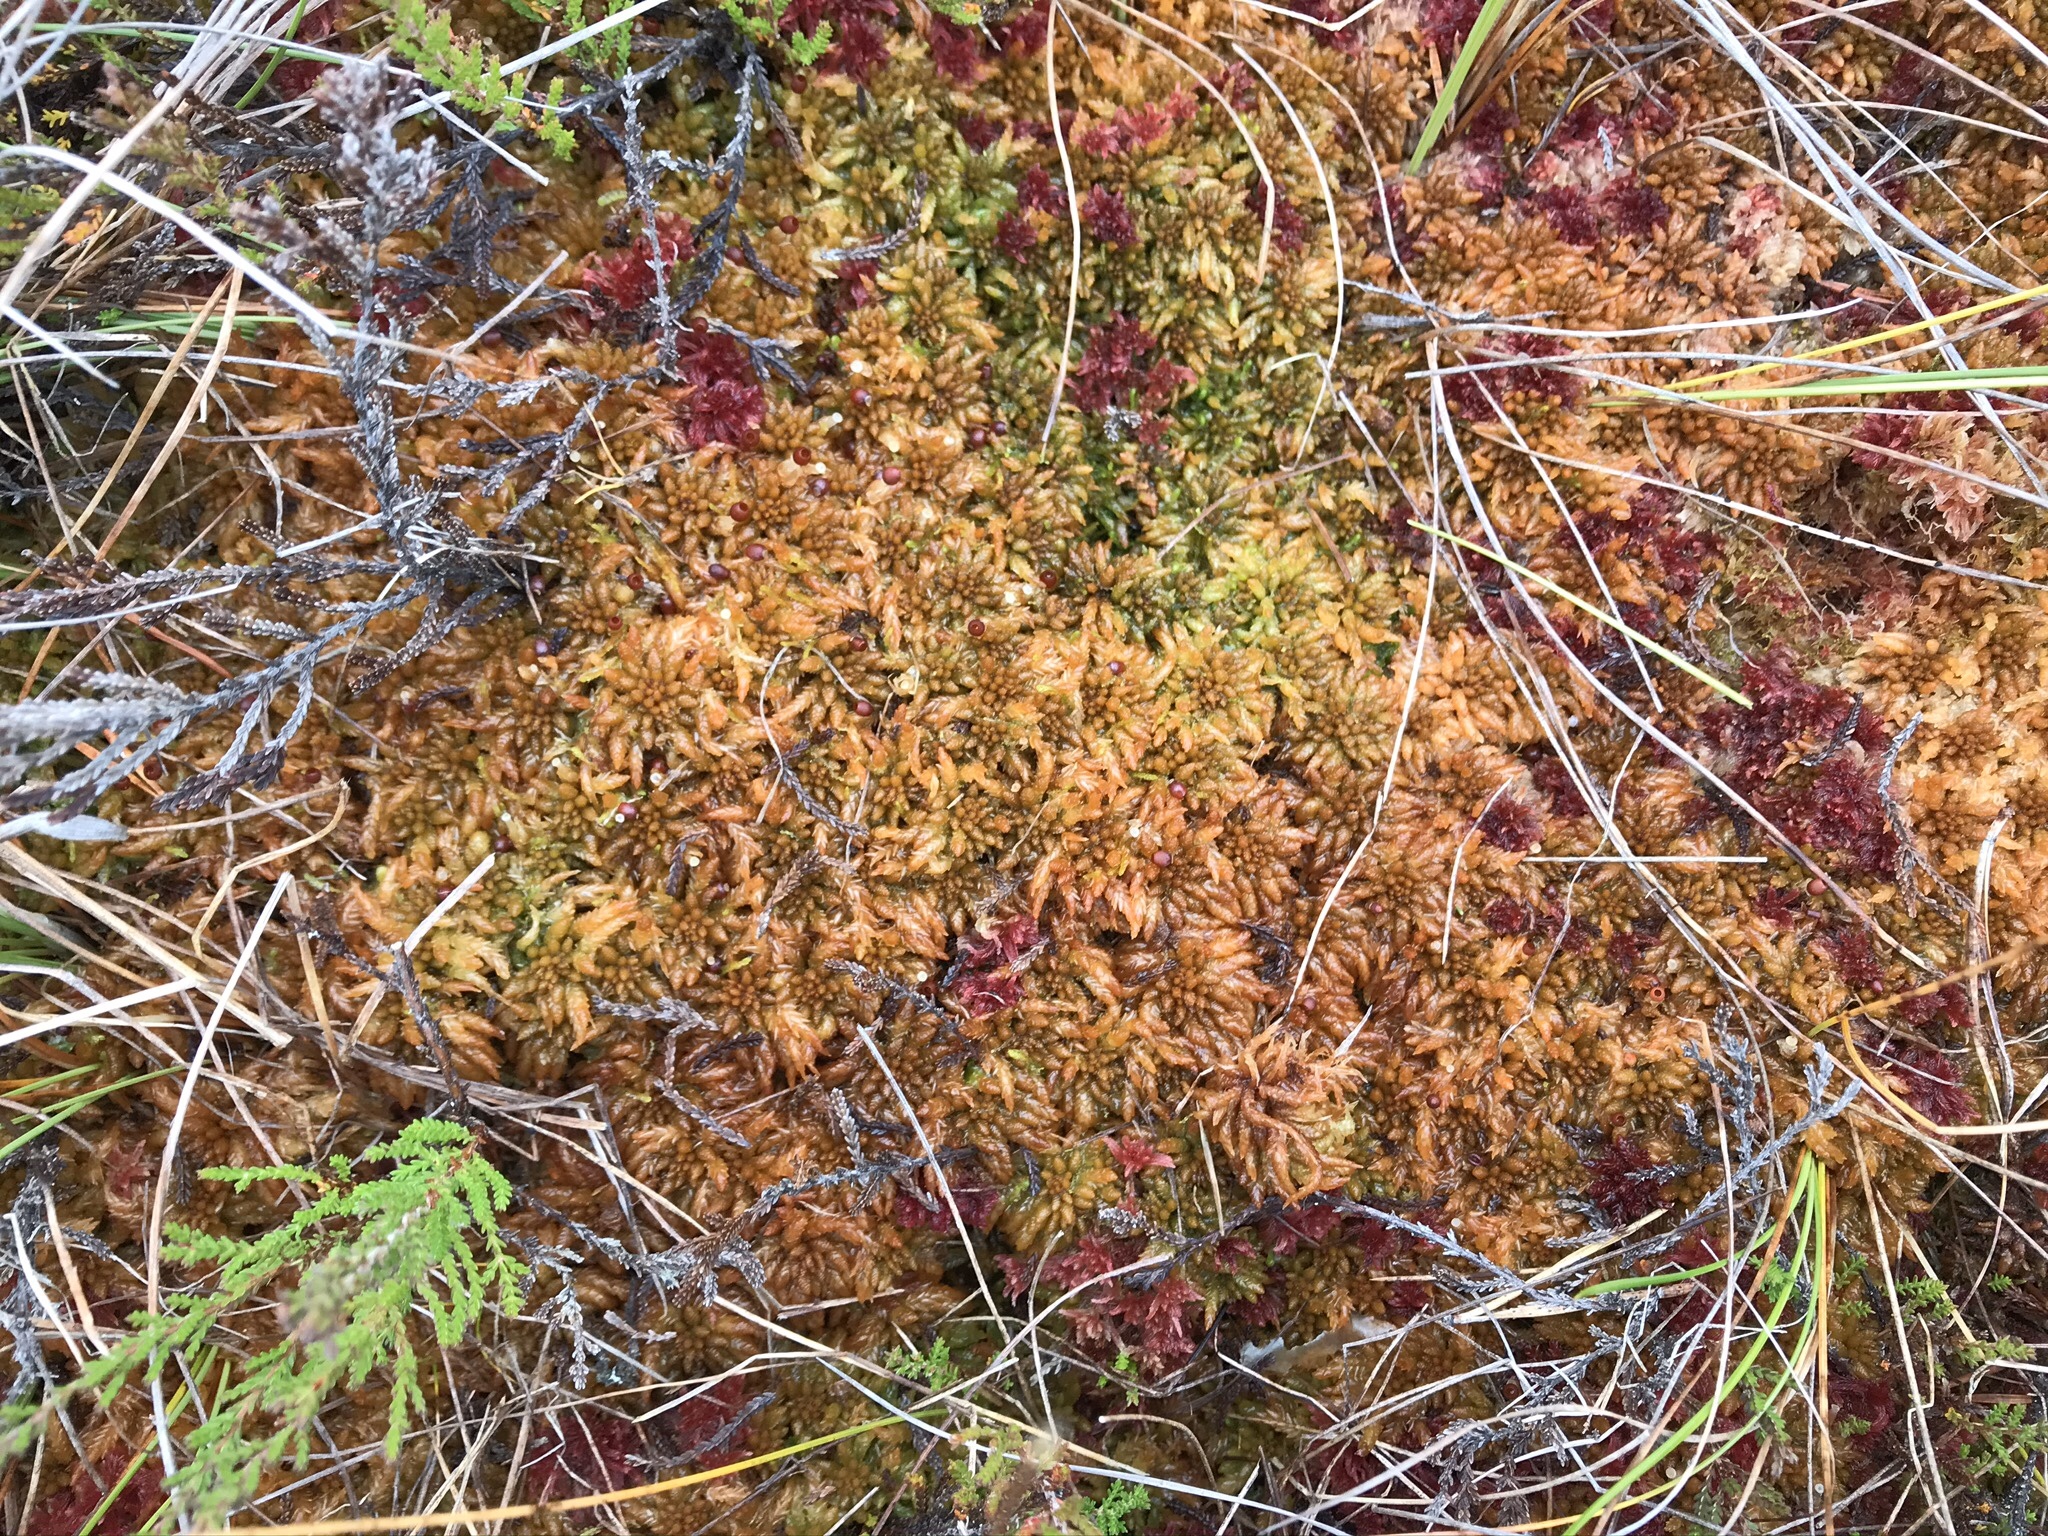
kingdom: Plantae
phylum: Bryophyta
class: Sphagnopsida
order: Sphagnales
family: Sphagnaceae
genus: Sphagnum
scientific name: Sphagnum austinii
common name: Austin's peat moss
